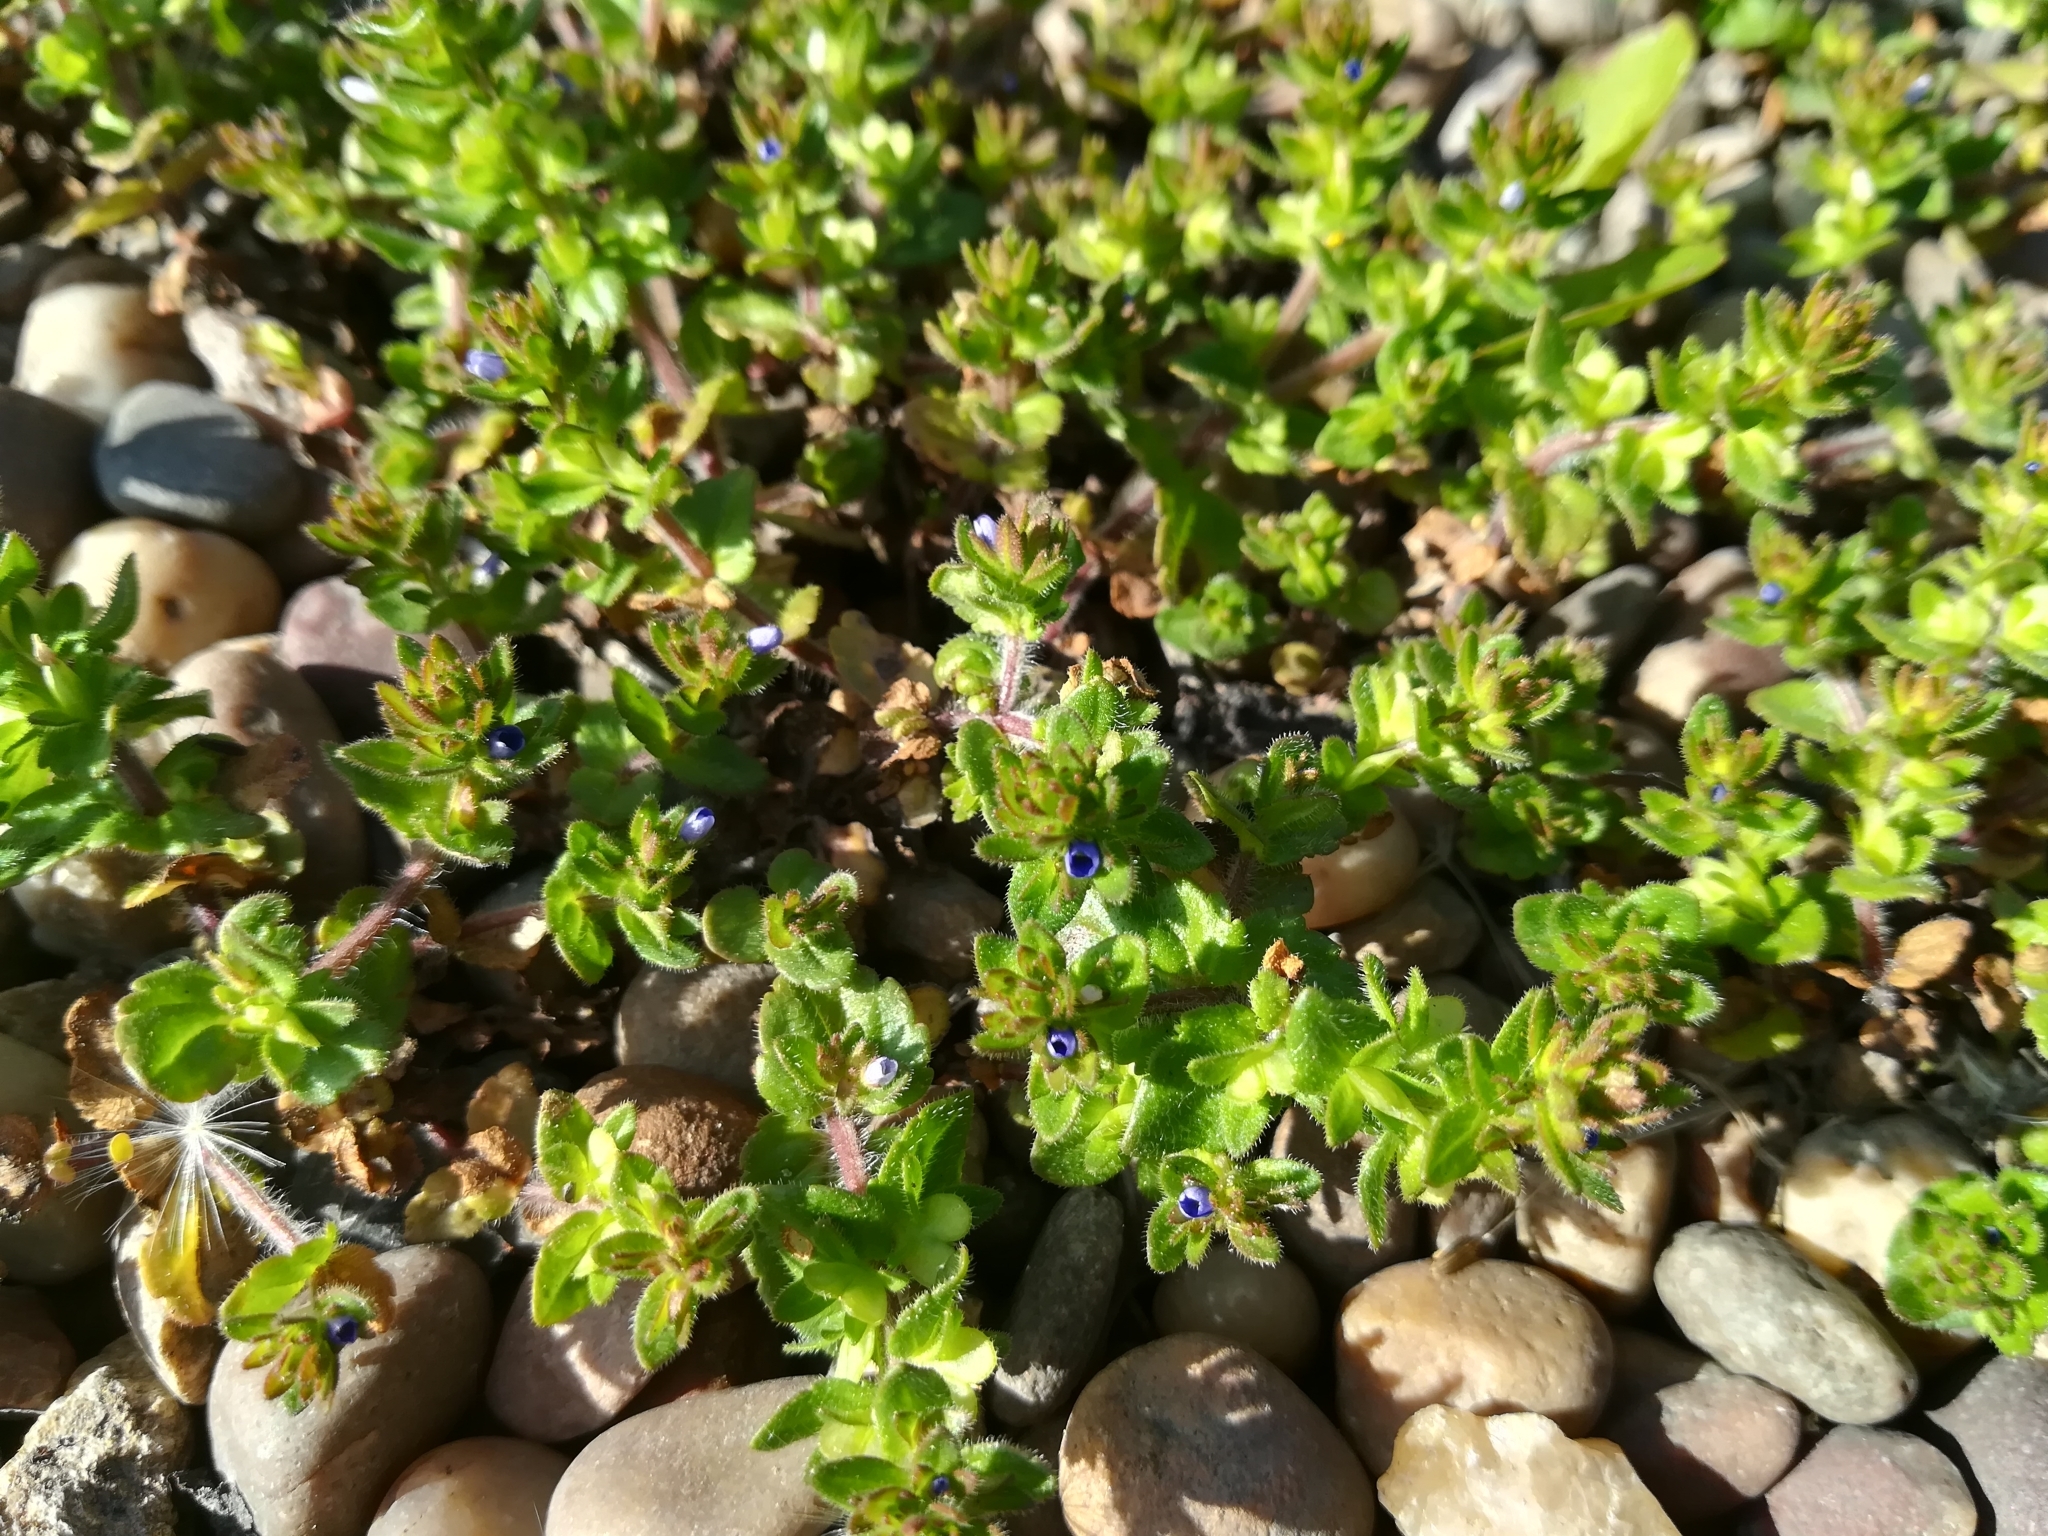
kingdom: Plantae
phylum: Tracheophyta
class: Magnoliopsida
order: Lamiales
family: Plantaginaceae
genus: Veronica
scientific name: Veronica arvensis
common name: Corn speedwell
